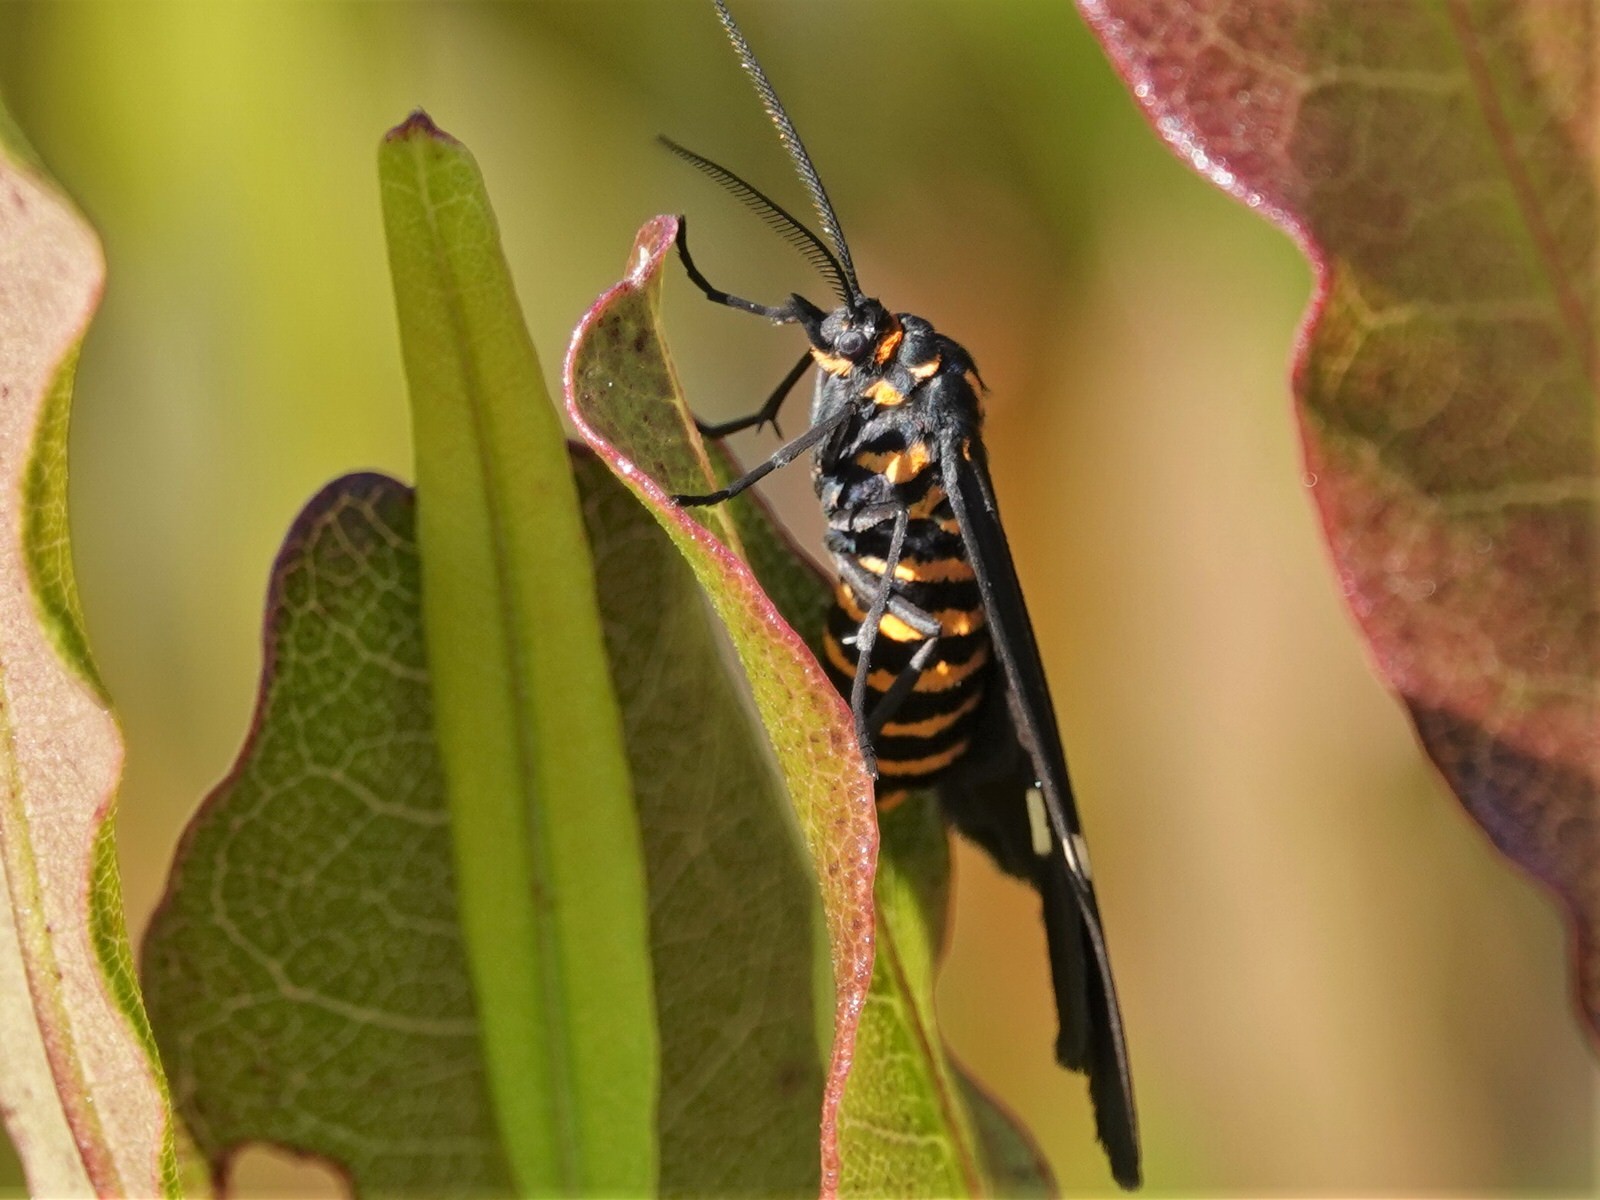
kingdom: Animalia
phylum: Arthropoda
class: Insecta
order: Lepidoptera
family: Erebidae
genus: Nyctemera
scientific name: Nyctemera annulatum
